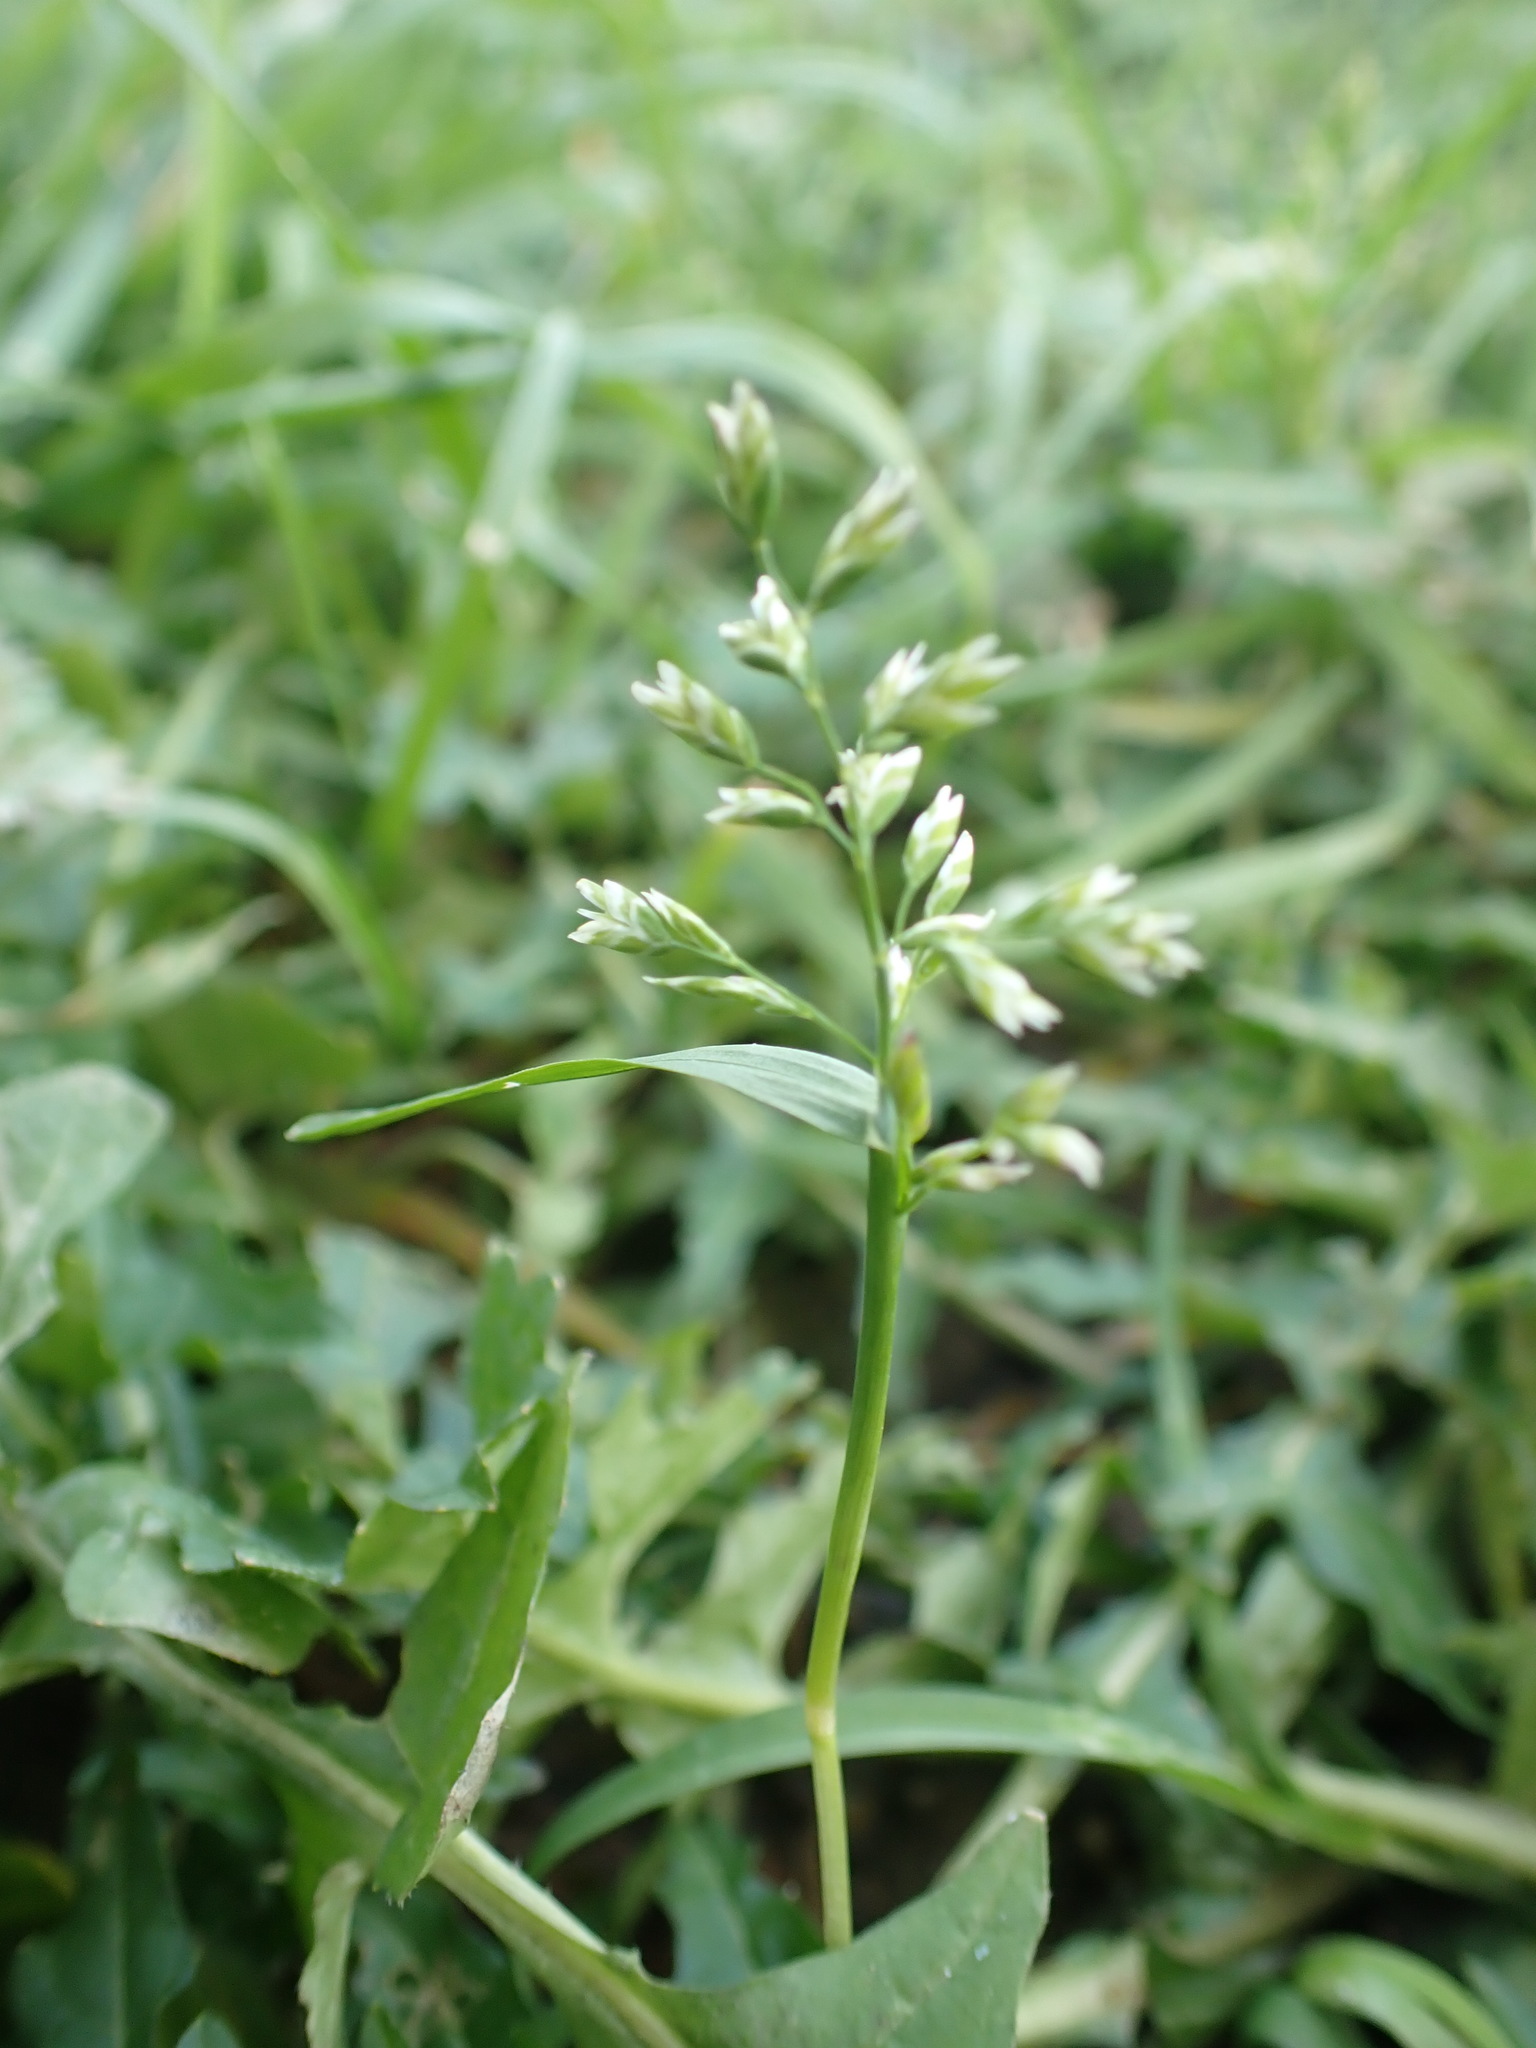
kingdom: Plantae
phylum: Tracheophyta
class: Liliopsida
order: Poales
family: Poaceae
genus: Poa
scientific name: Poa annua
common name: Annual bluegrass
